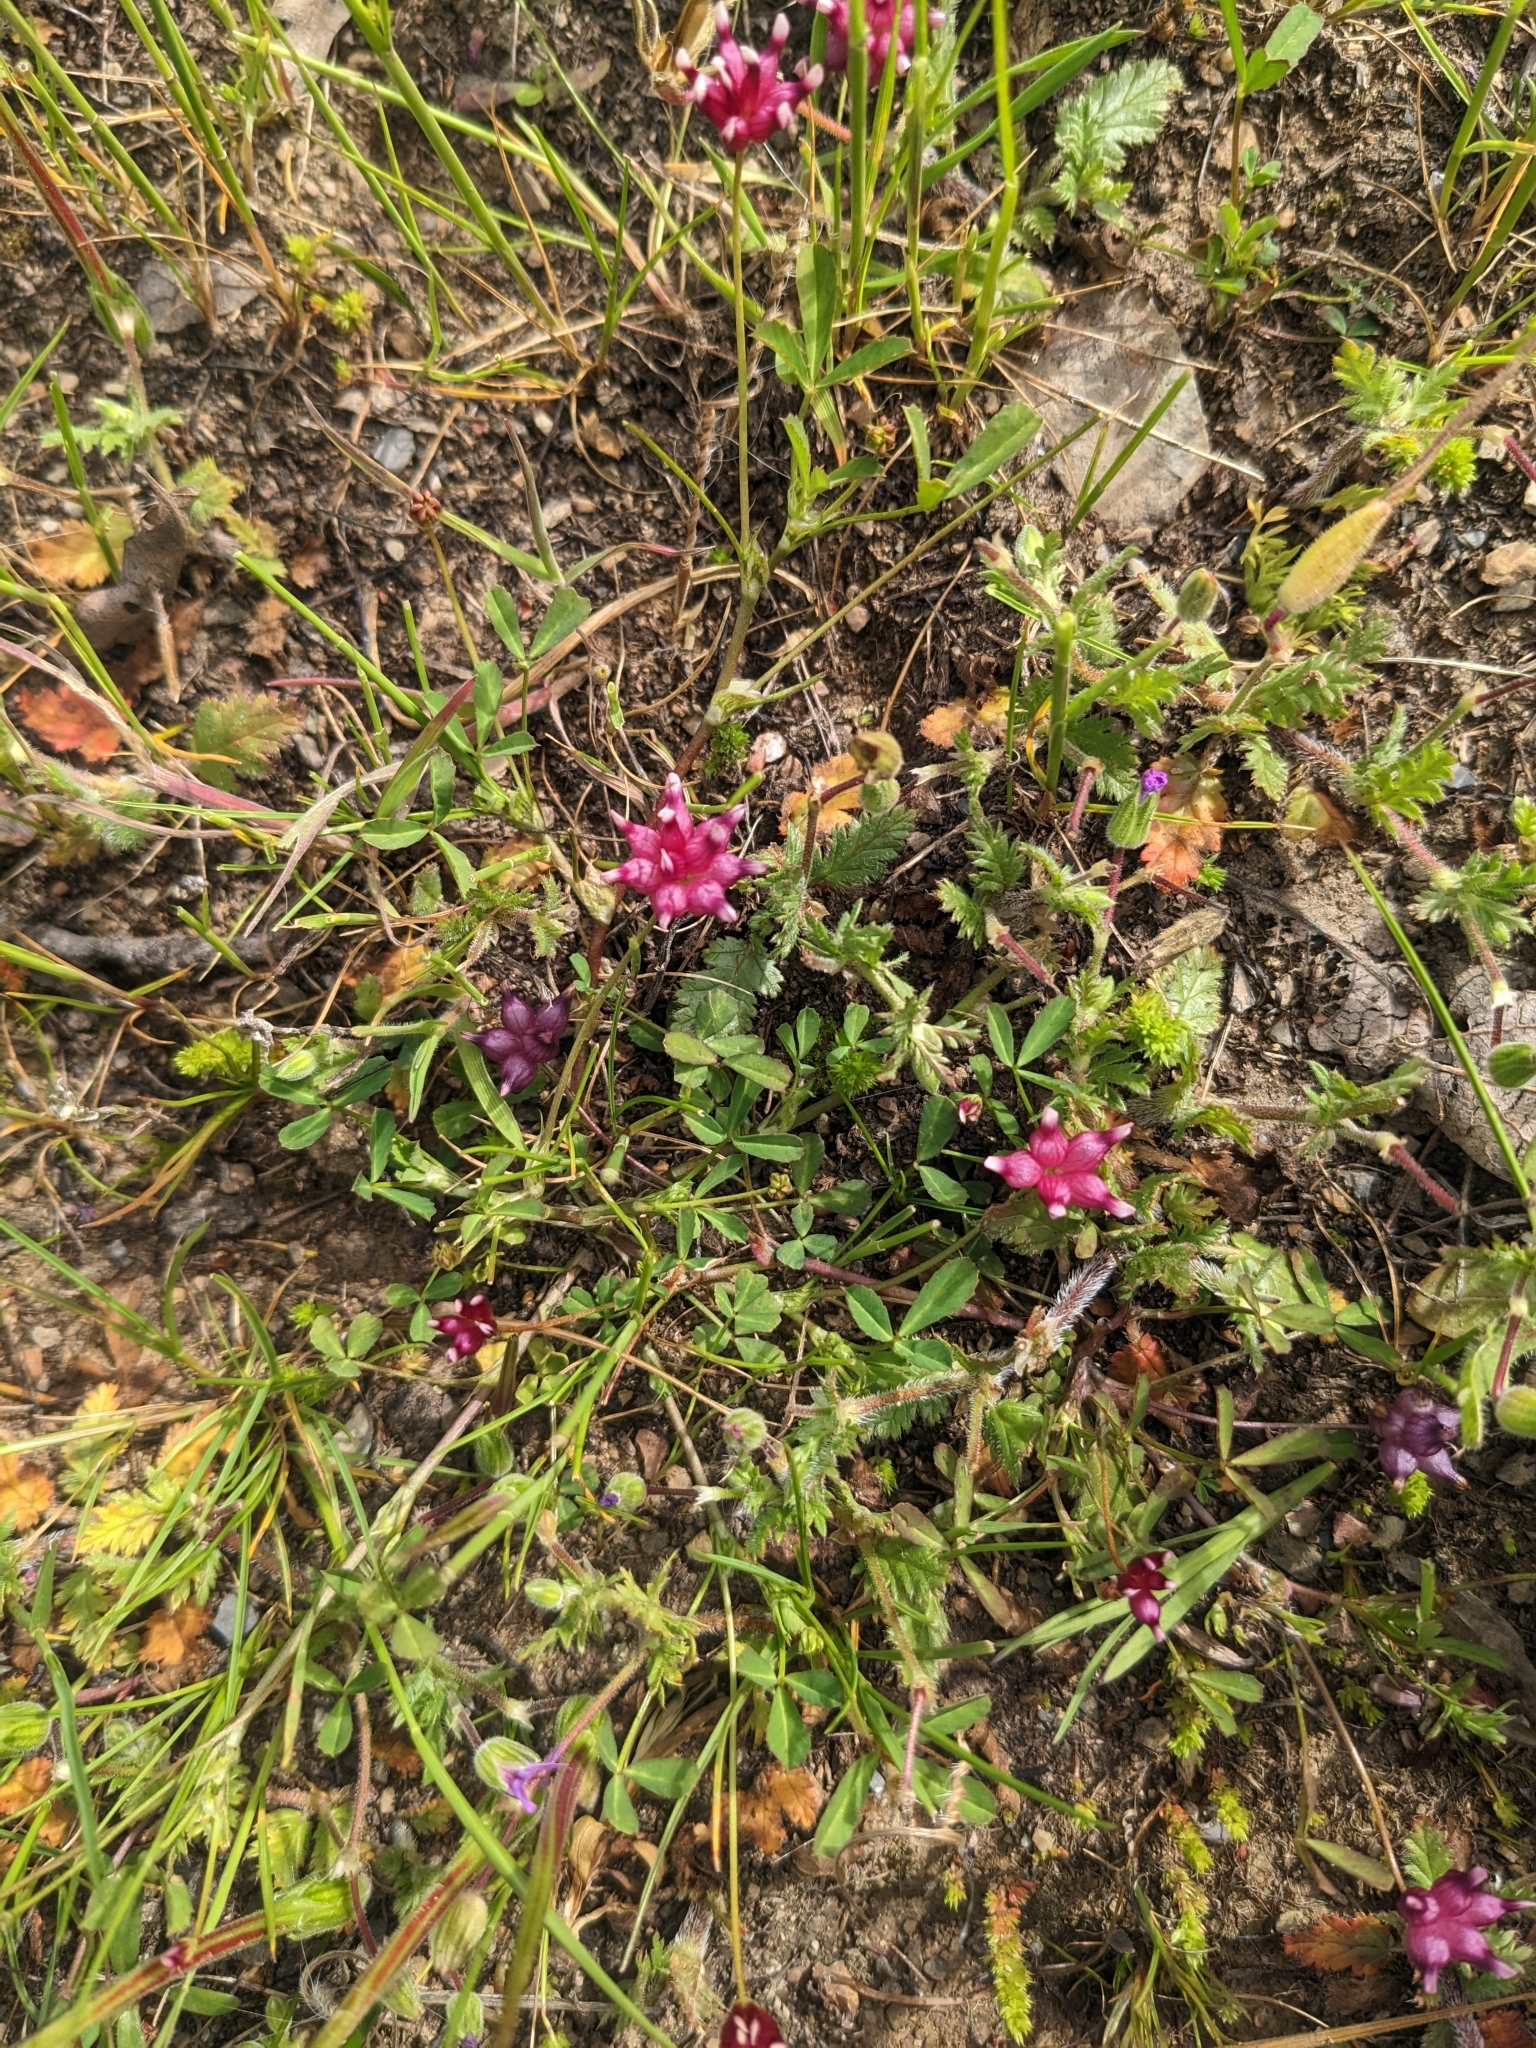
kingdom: Plantae
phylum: Tracheophyta
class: Magnoliopsida
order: Fabales
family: Fabaceae
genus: Trifolium
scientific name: Trifolium depauperatum
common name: Poverty clover
